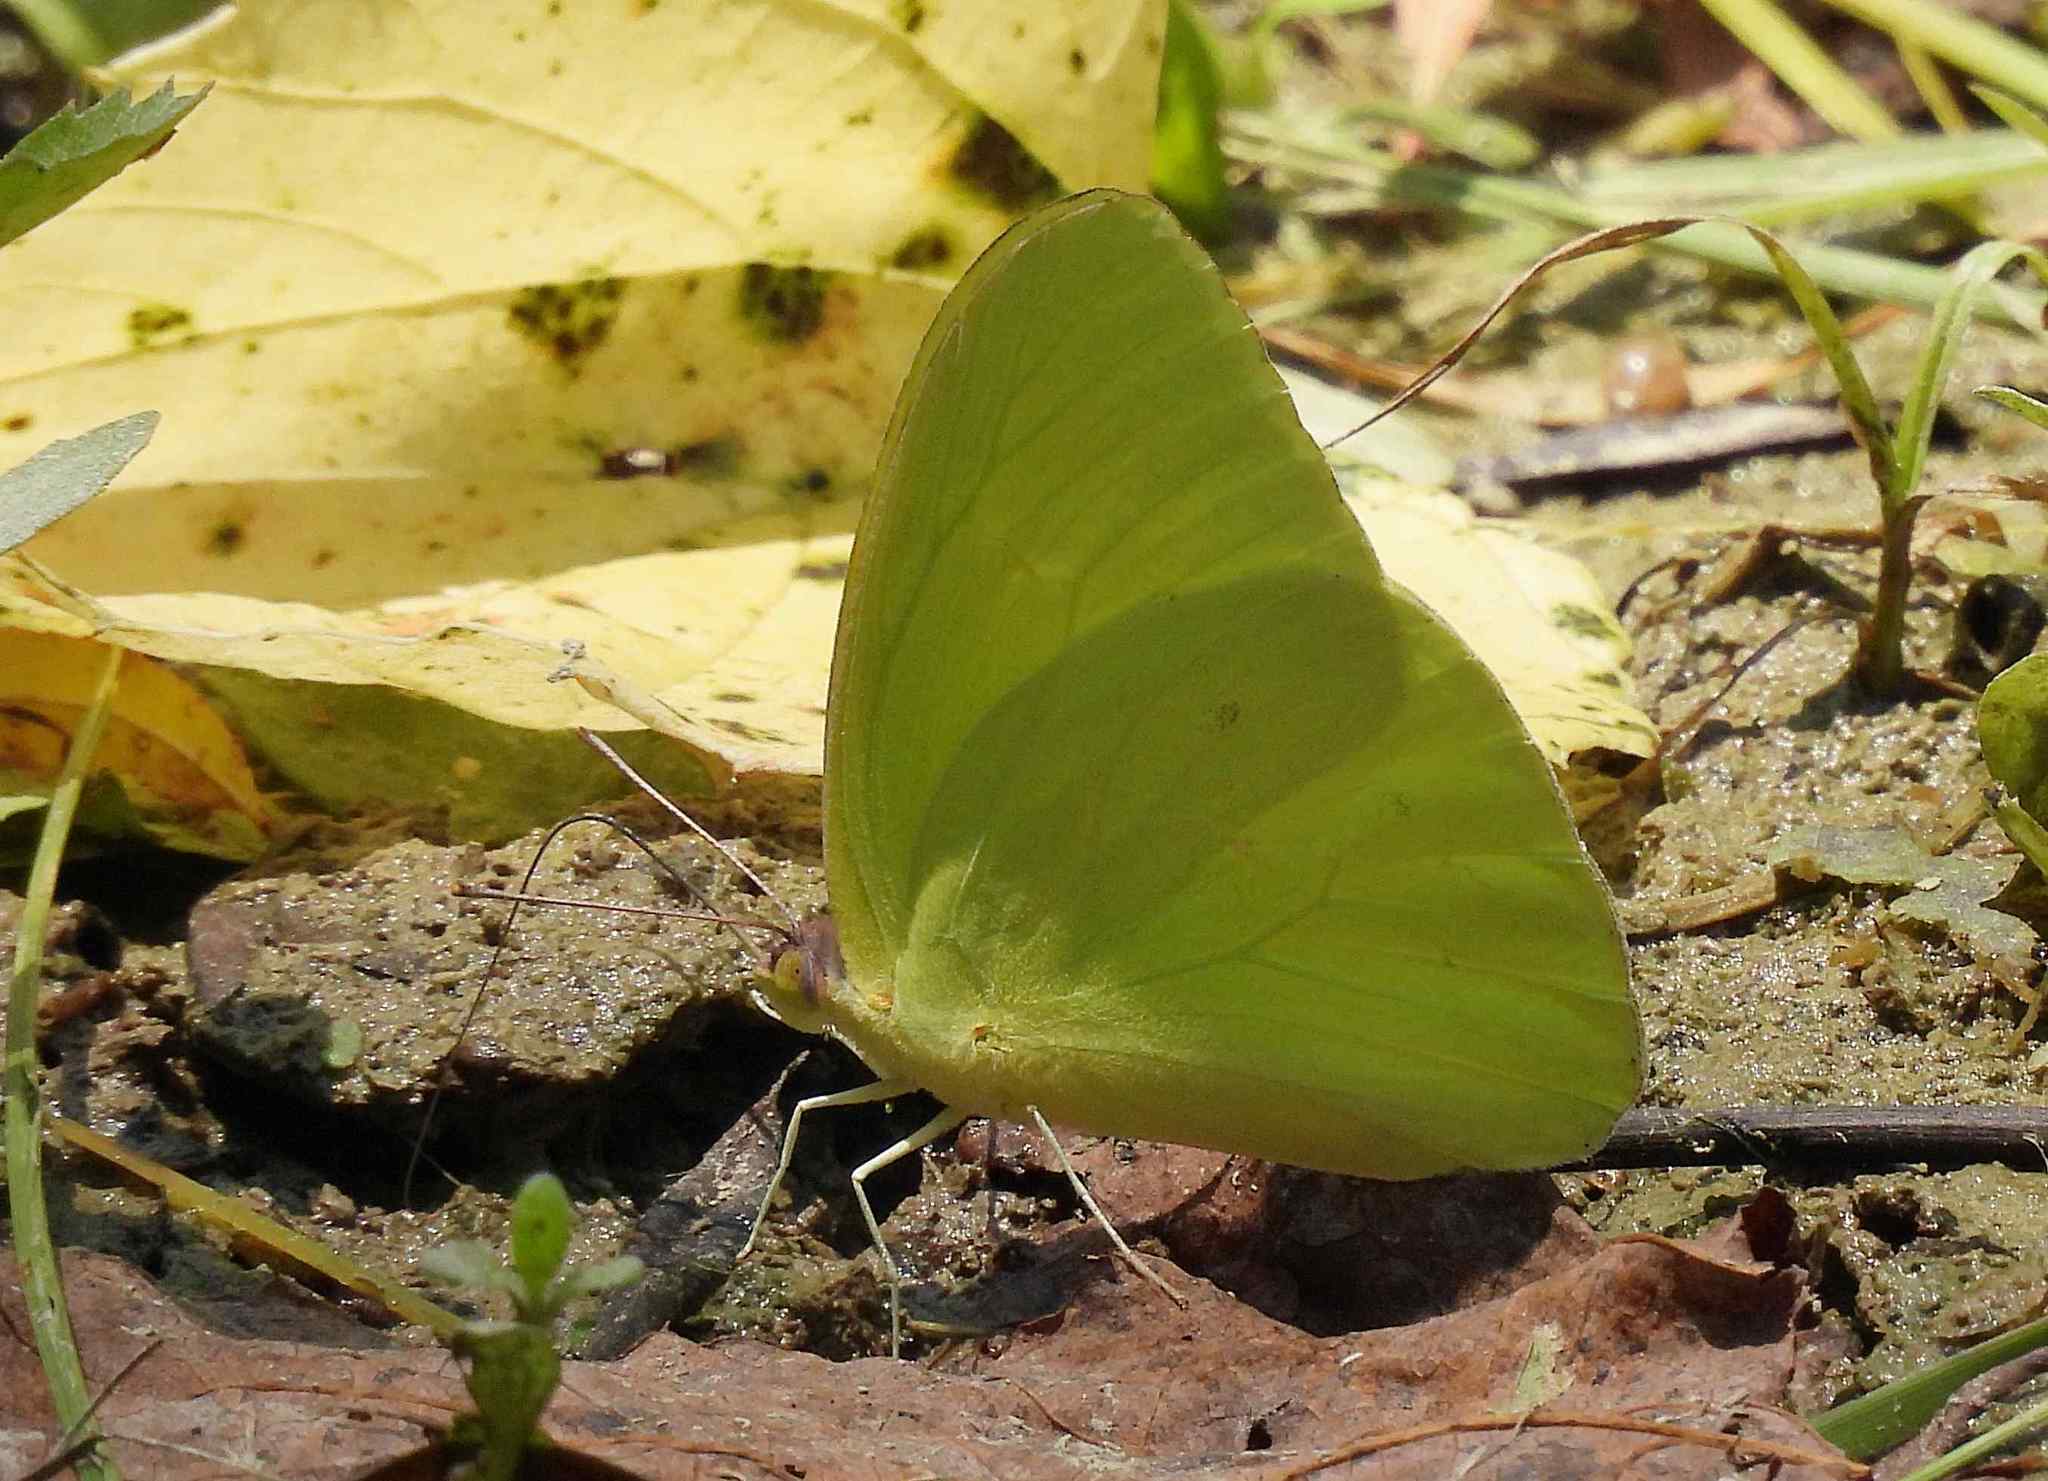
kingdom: Animalia
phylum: Arthropoda
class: Insecta
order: Lepidoptera
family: Pieridae
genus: Phoebis
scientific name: Phoebis sennae
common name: Cloudless sulphur
